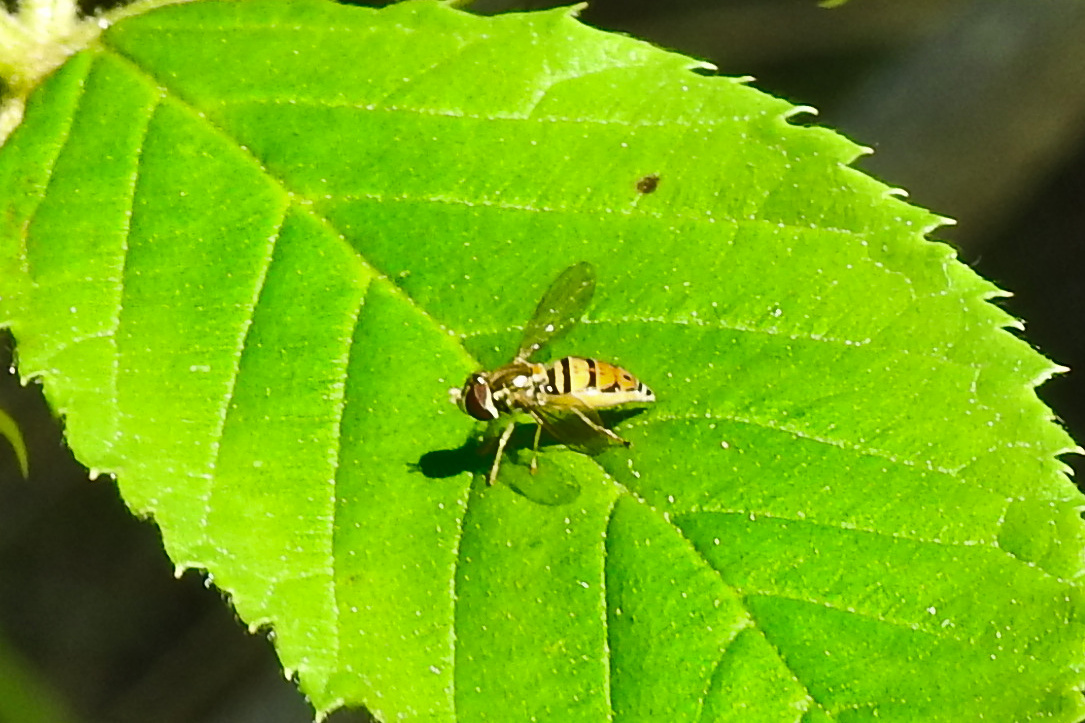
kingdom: Animalia
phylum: Arthropoda
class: Insecta
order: Diptera
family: Syrphidae
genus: Toxomerus
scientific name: Toxomerus marginatus
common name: Syrphid fly
